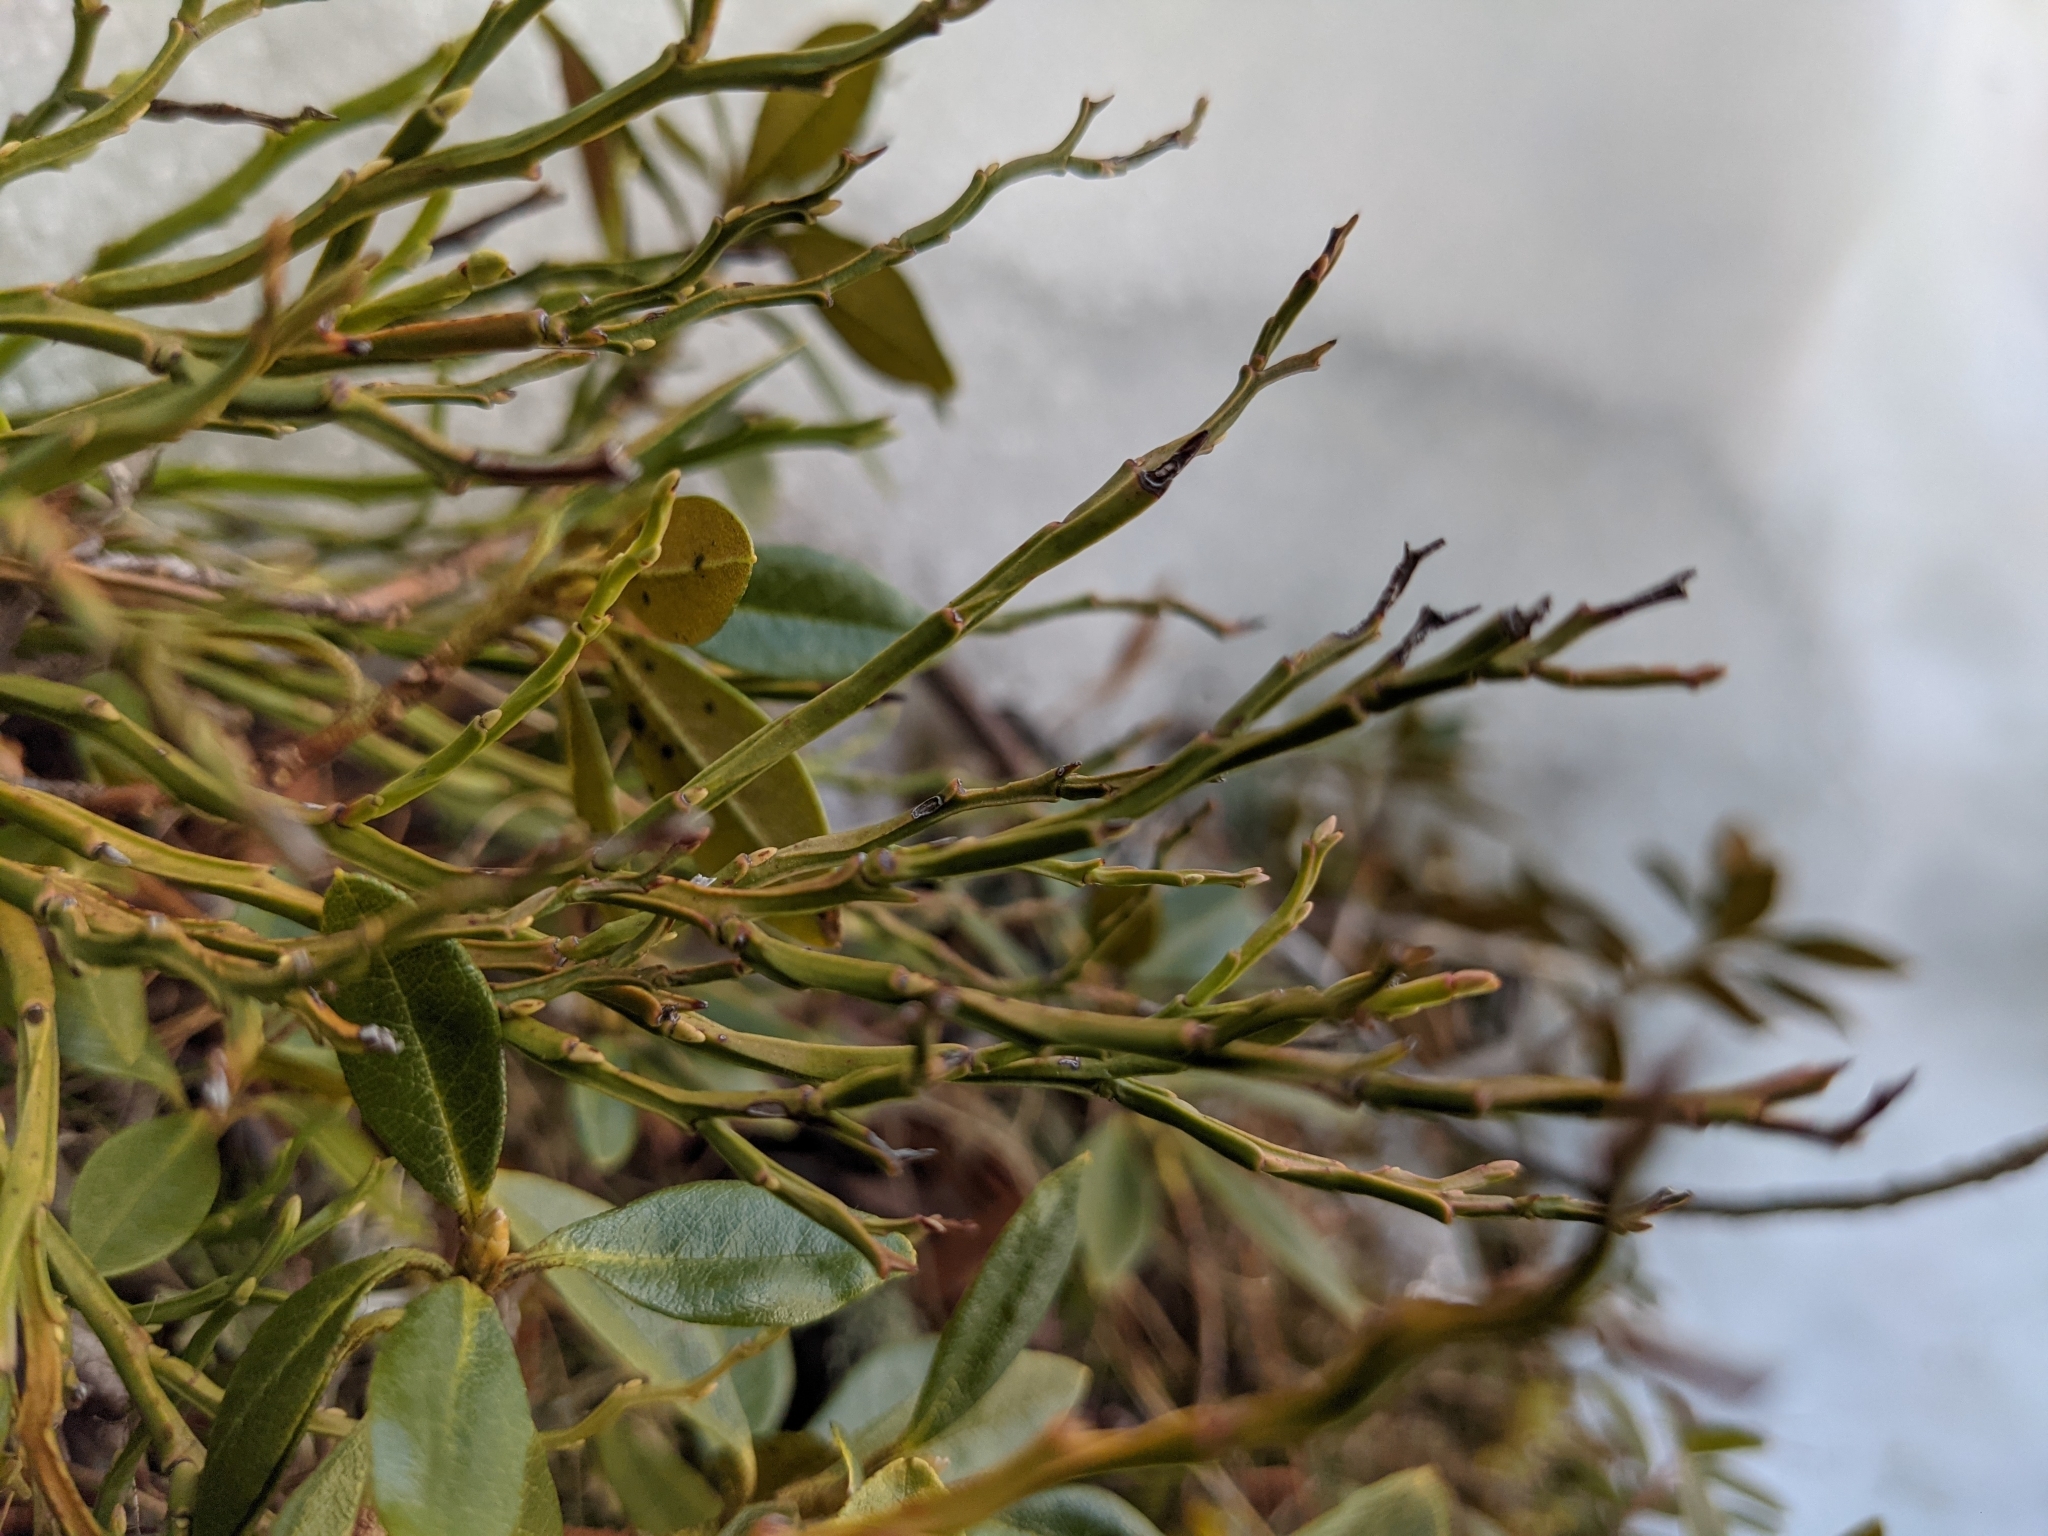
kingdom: Plantae
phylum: Tracheophyta
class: Magnoliopsida
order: Ericales
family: Ericaceae
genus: Vaccinium
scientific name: Vaccinium myrtillus
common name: Bilberry
